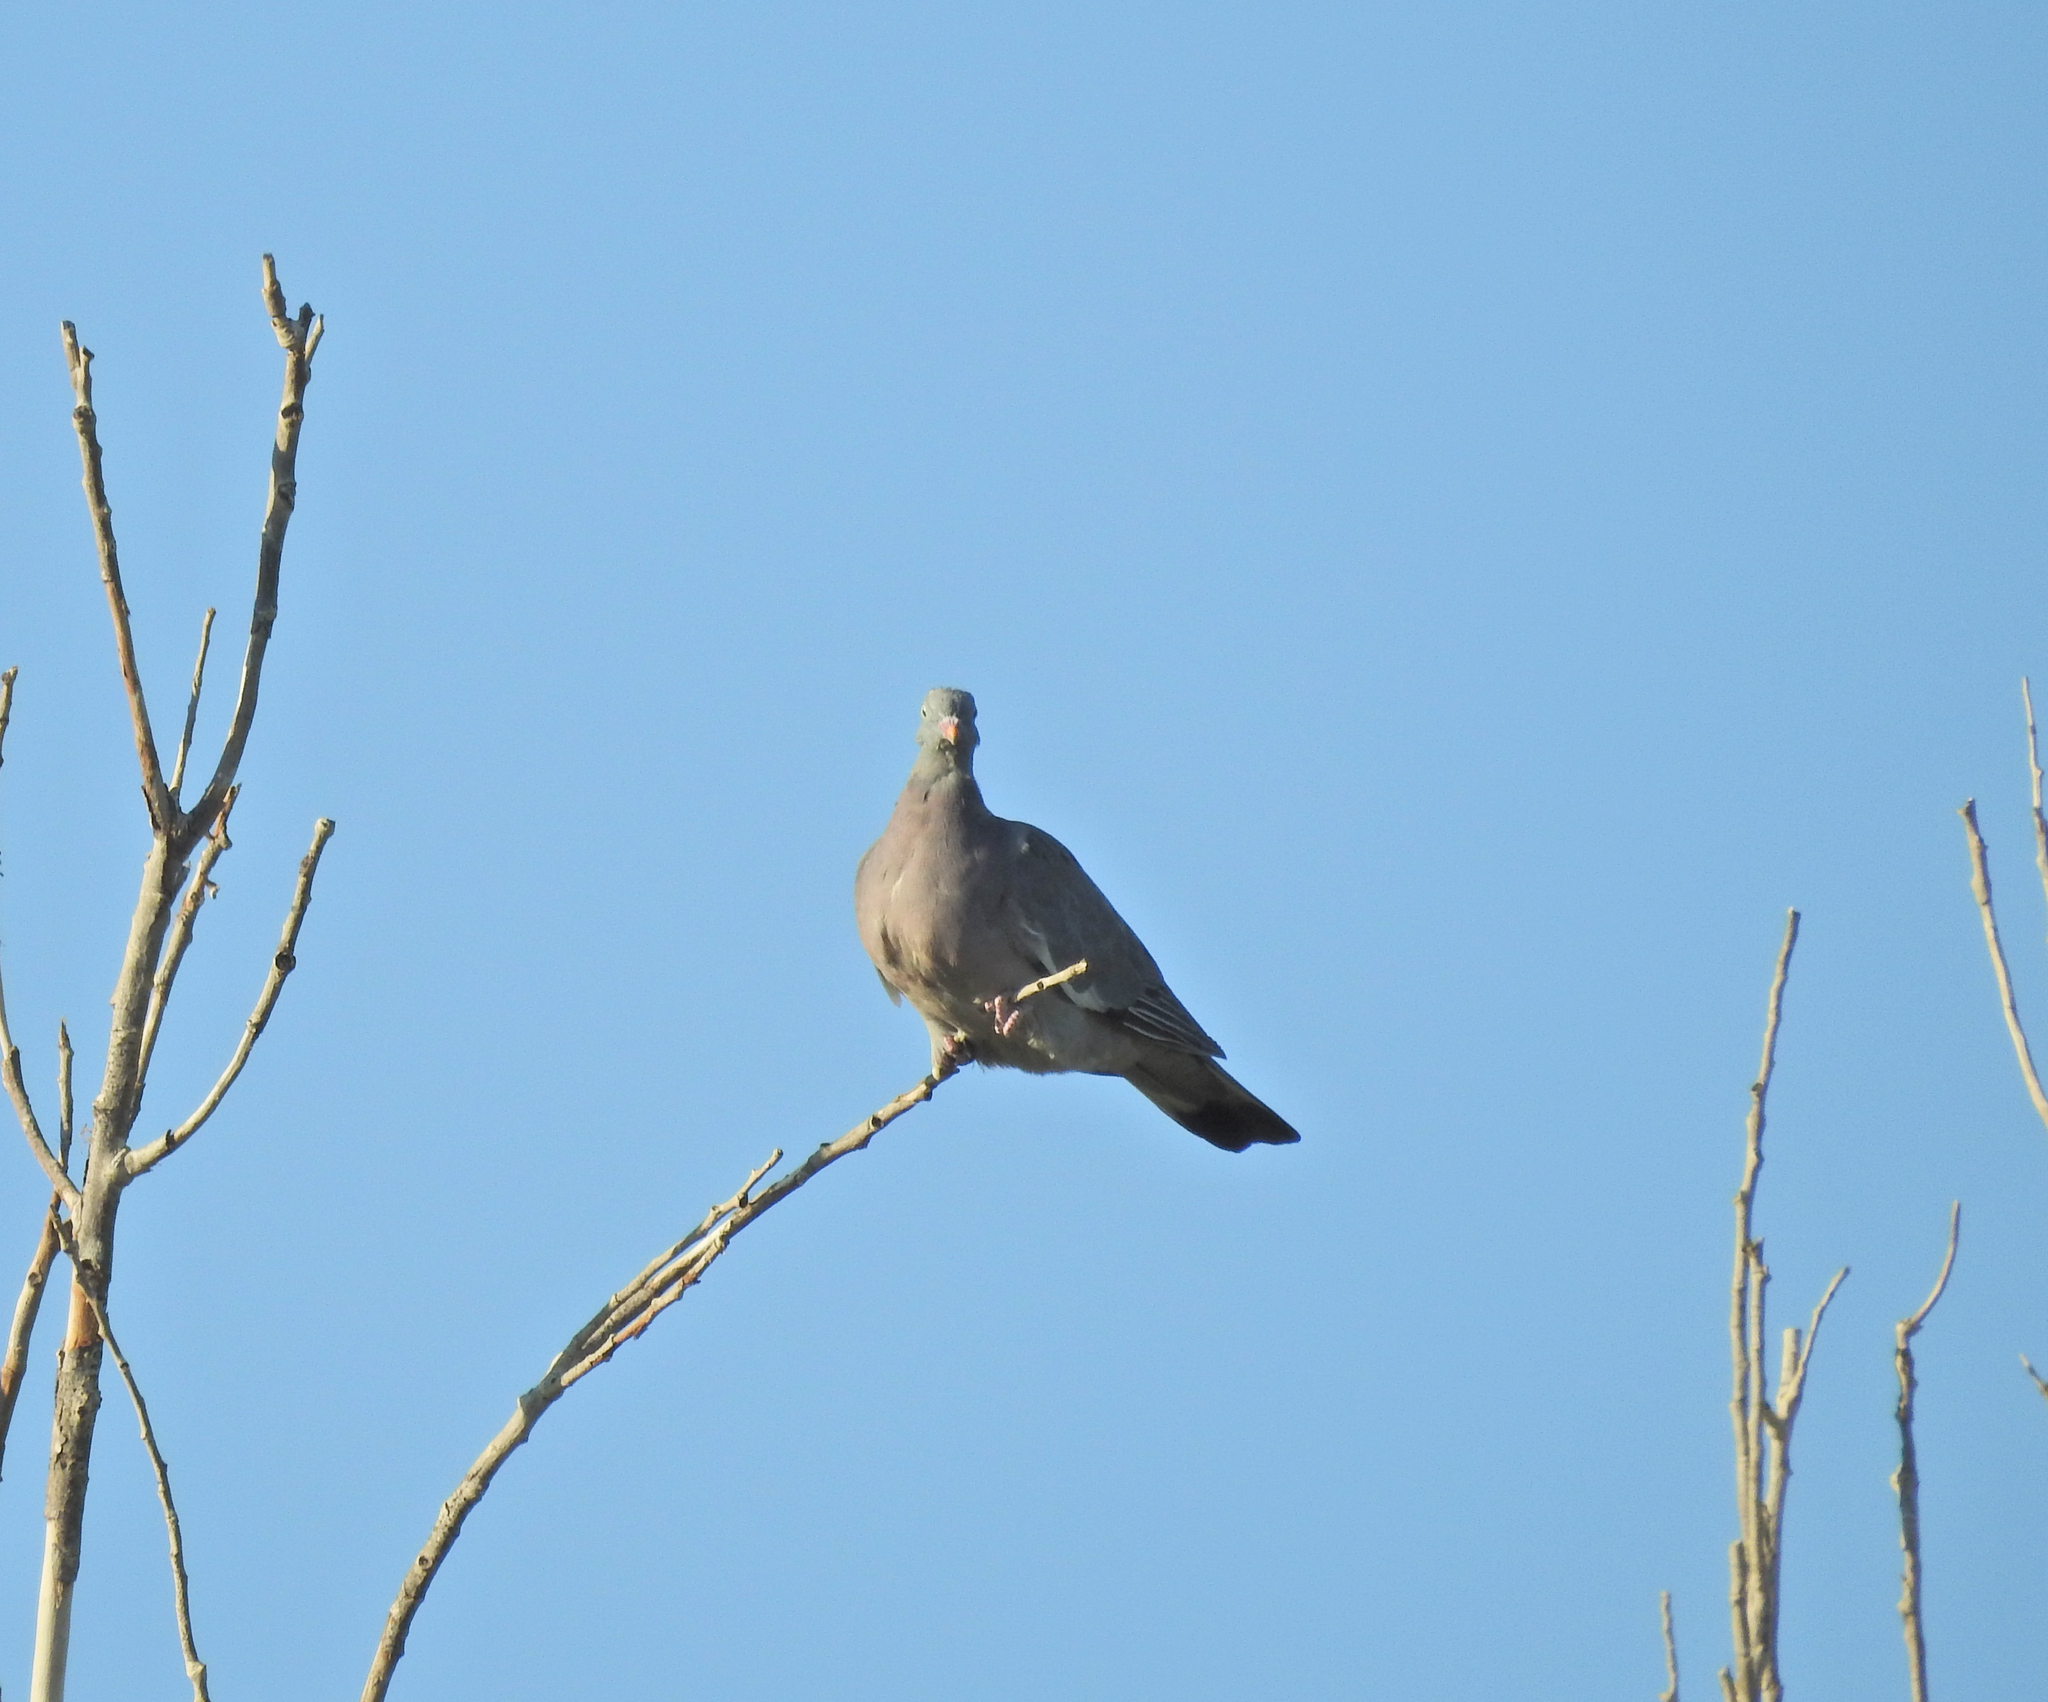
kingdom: Animalia
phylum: Chordata
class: Aves
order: Columbiformes
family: Columbidae
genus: Columba
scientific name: Columba palumbus
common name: Common wood pigeon
